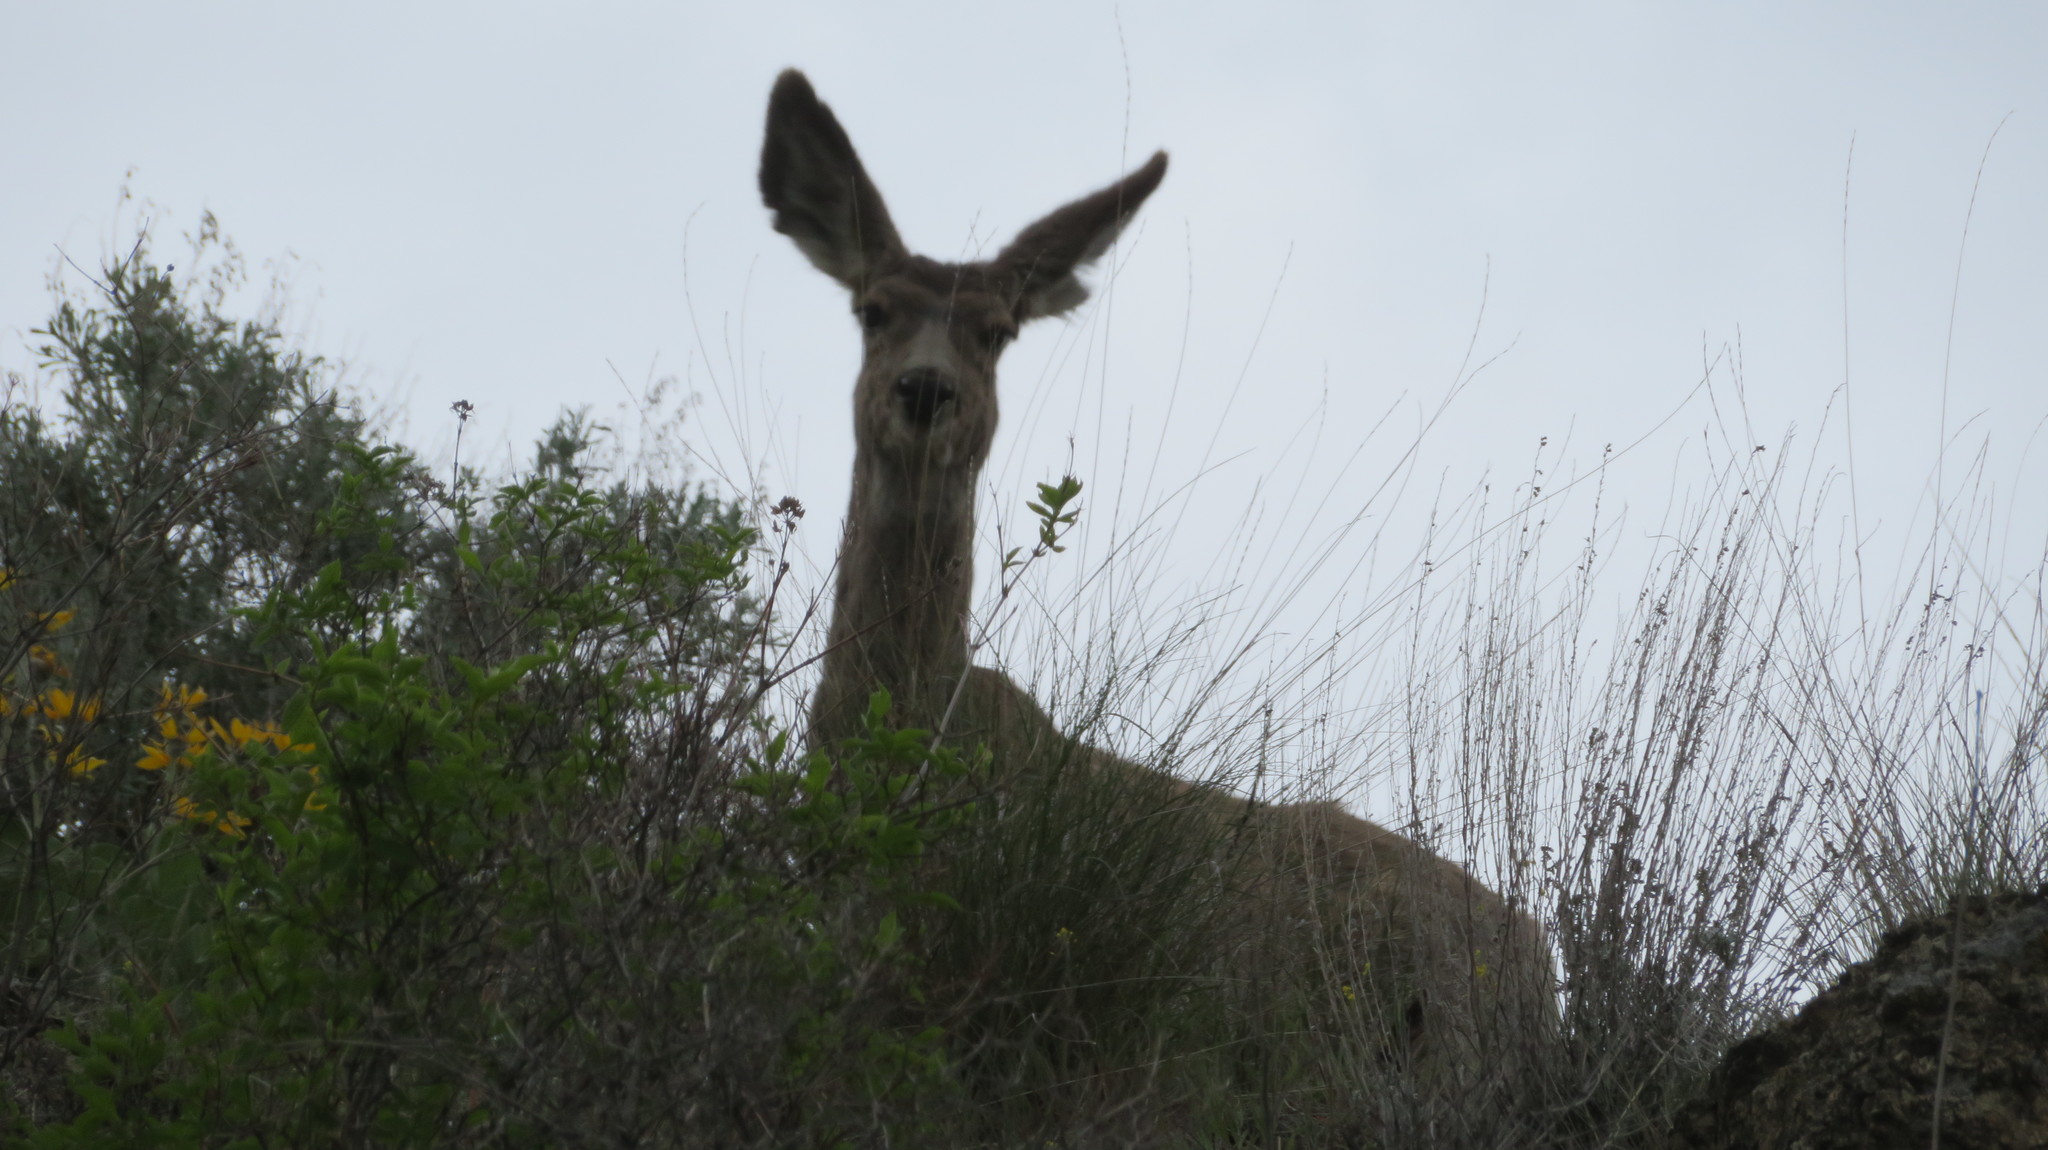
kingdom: Animalia
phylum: Chordata
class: Mammalia
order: Artiodactyla
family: Cervidae
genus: Odocoileus
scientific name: Odocoileus hemionus
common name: Mule deer
